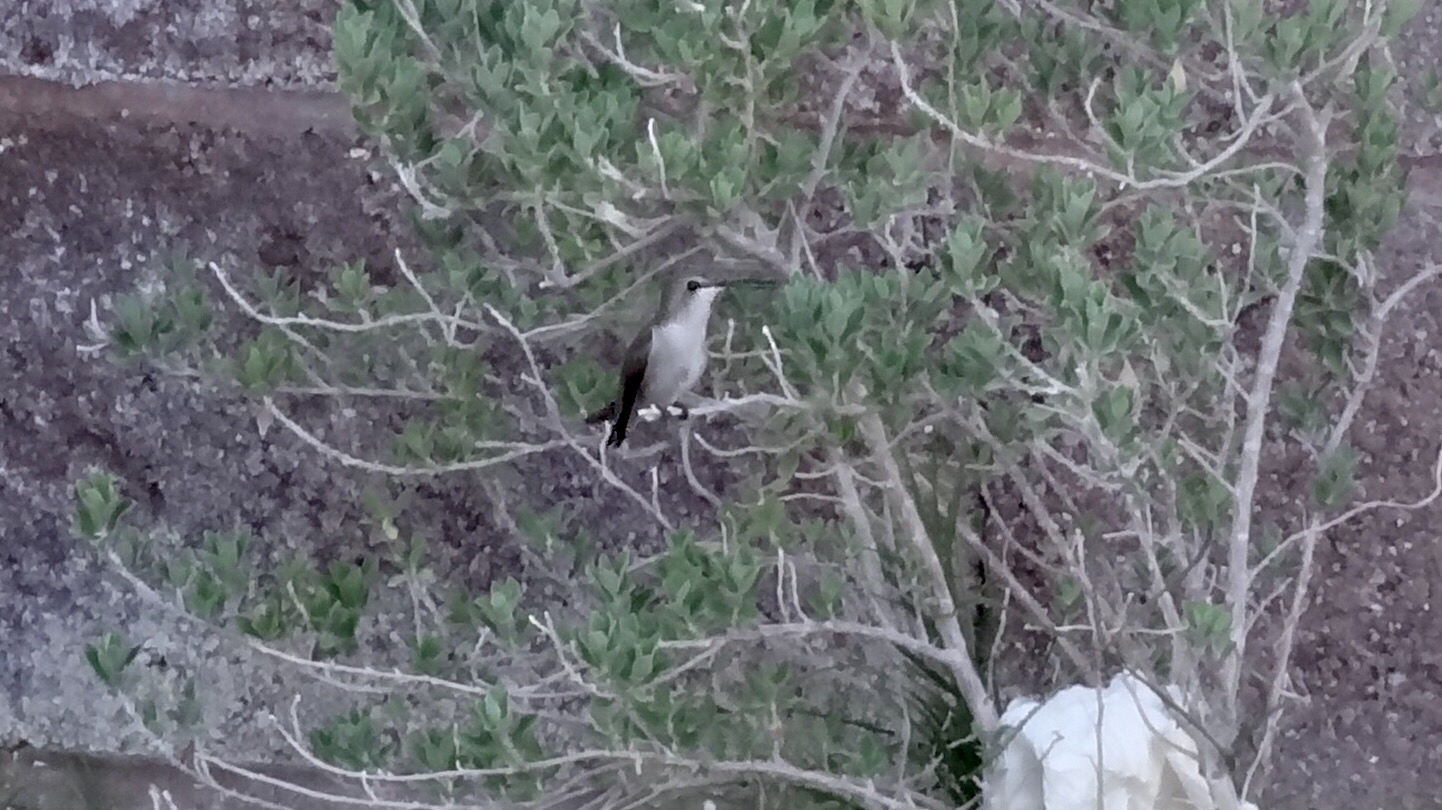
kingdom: Animalia
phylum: Chordata
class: Aves
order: Apodiformes
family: Trochilidae
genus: Archilochus
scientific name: Archilochus alexandri
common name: Black-chinned hummingbird
